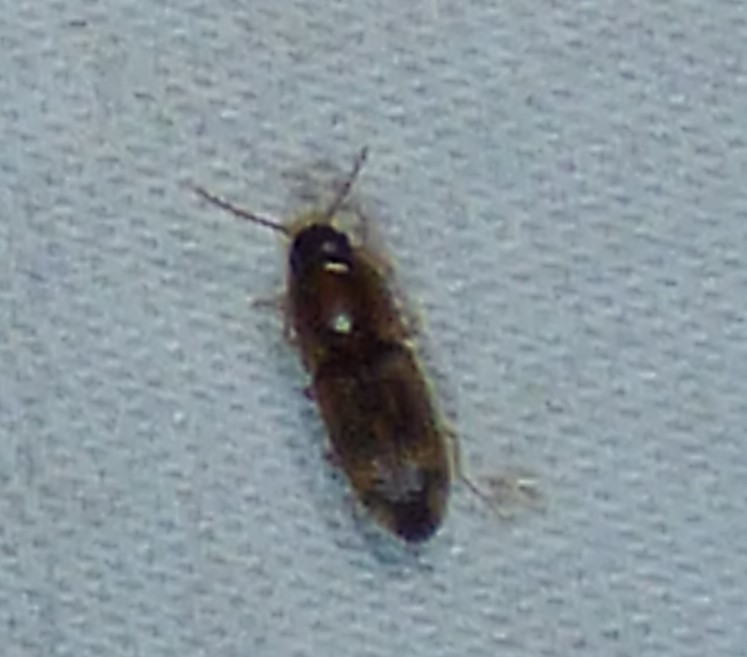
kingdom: Animalia
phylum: Arthropoda
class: Insecta
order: Coleoptera
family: Elateridae
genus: Monocrepidius
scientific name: Monocrepidius bellus
